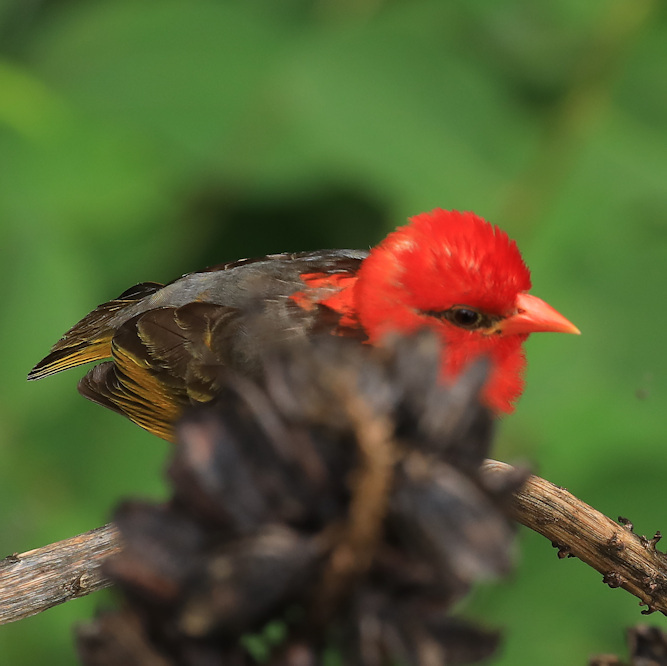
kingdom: Animalia
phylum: Chordata
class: Aves
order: Passeriformes
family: Ploceidae
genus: Anaplectes
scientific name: Anaplectes rubriceps
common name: Red-headed weaver
